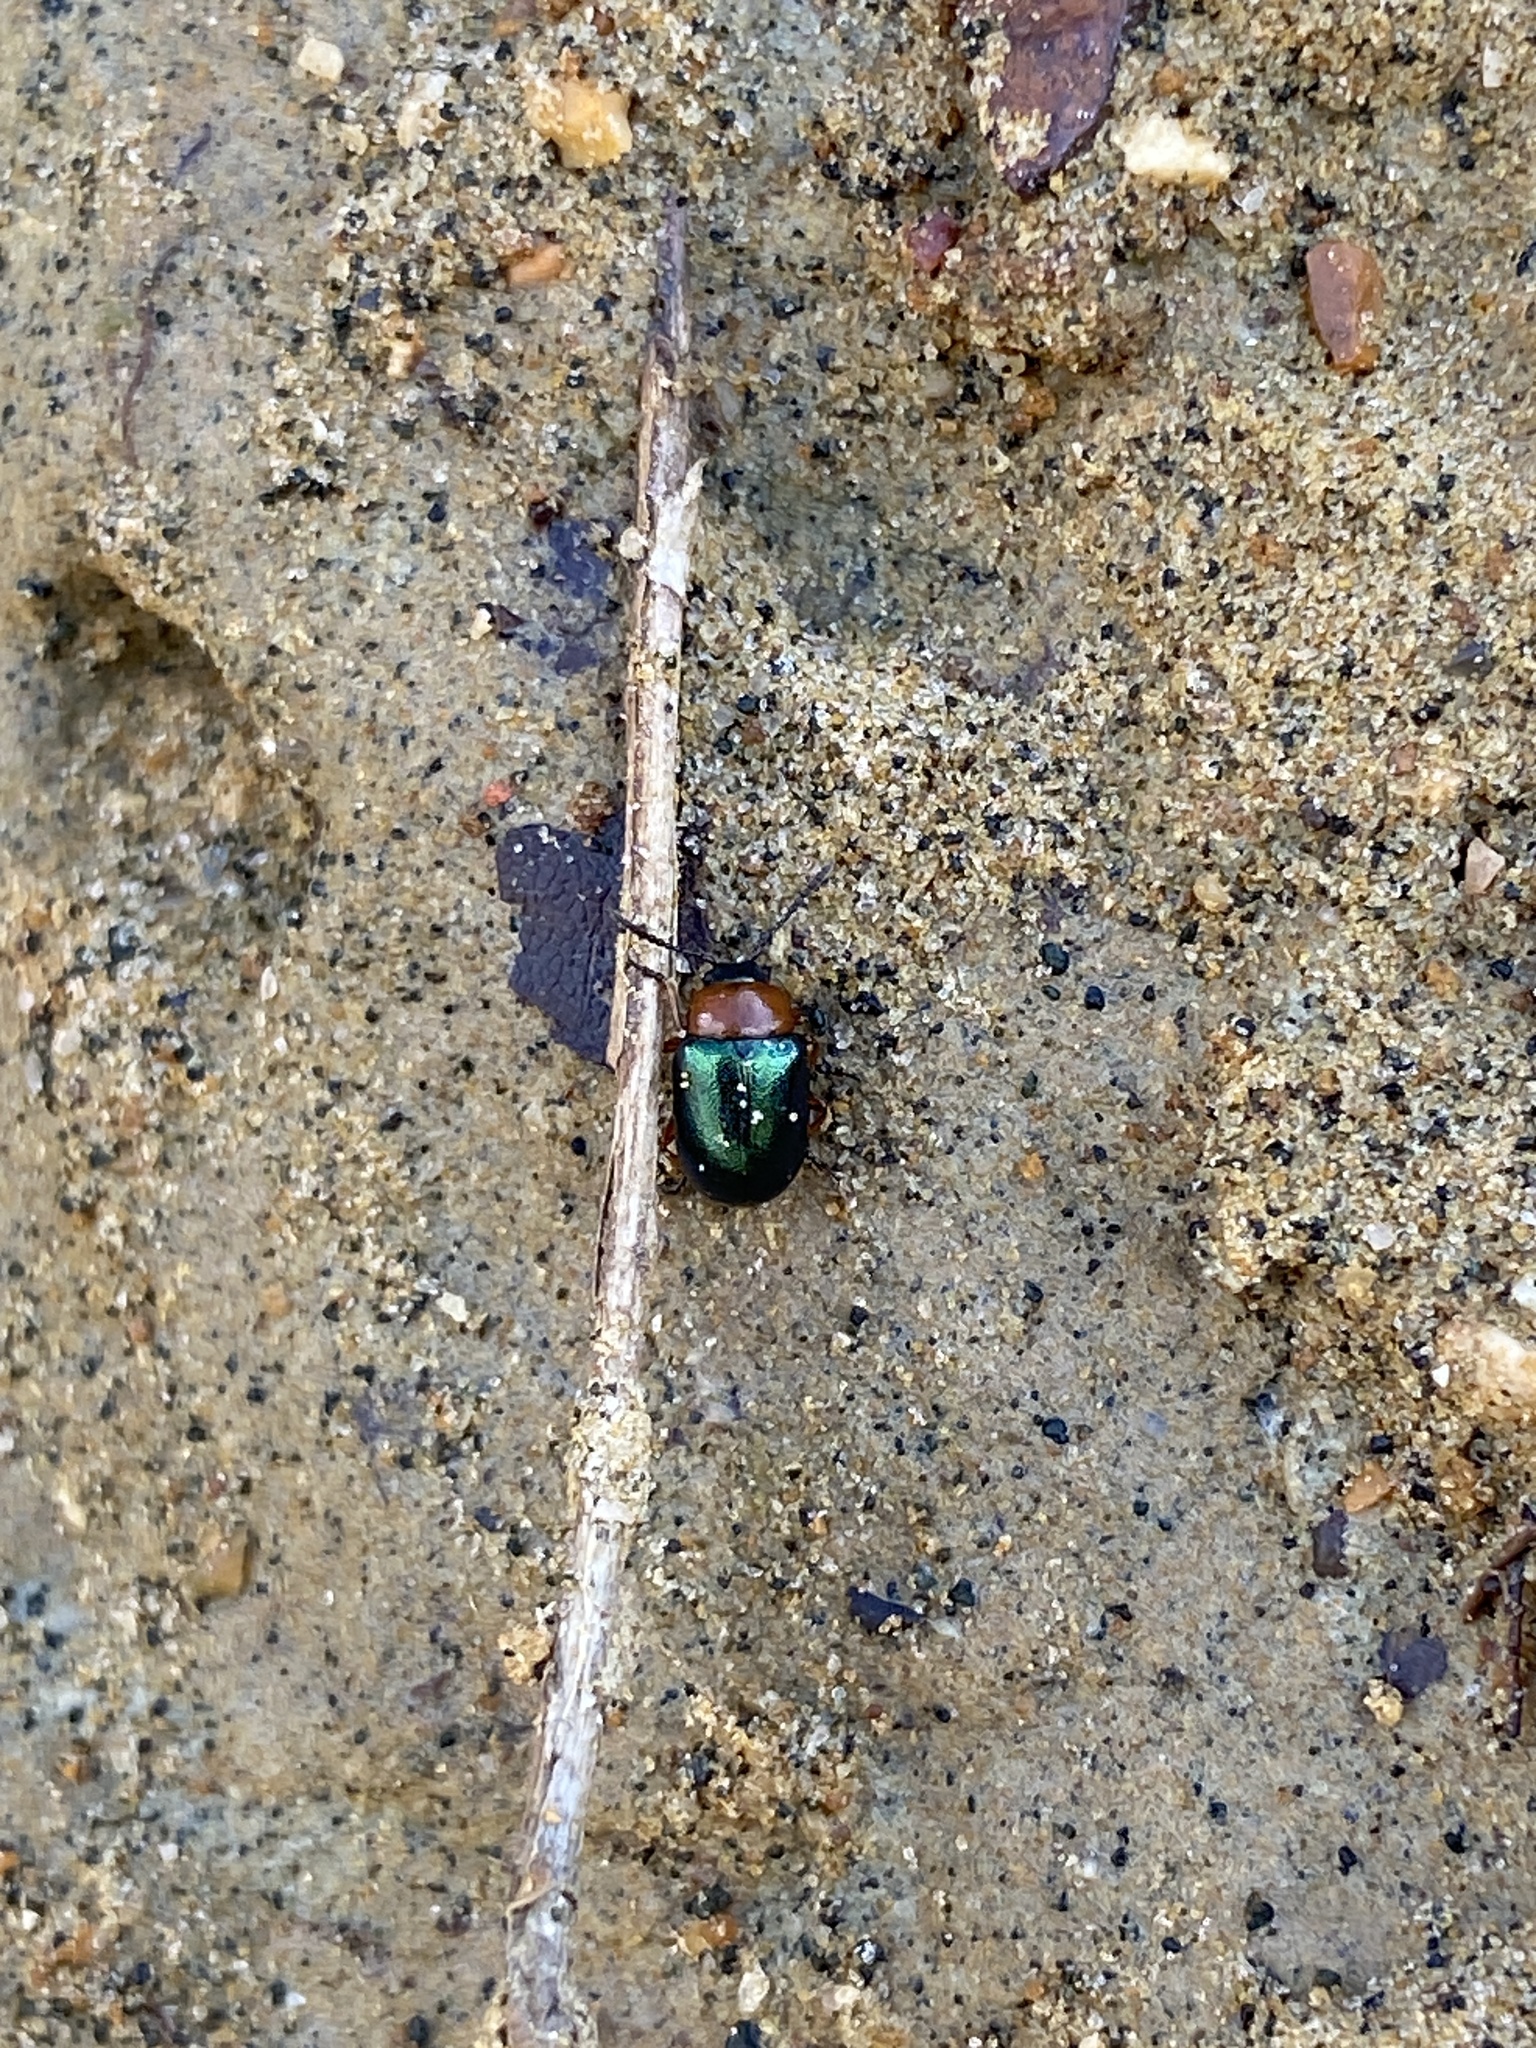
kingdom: Animalia
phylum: Arthropoda
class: Insecta
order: Coleoptera
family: Chrysomelidae
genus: Gastrophysa
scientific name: Gastrophysa polygoni
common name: Knotweed leaf beetle
